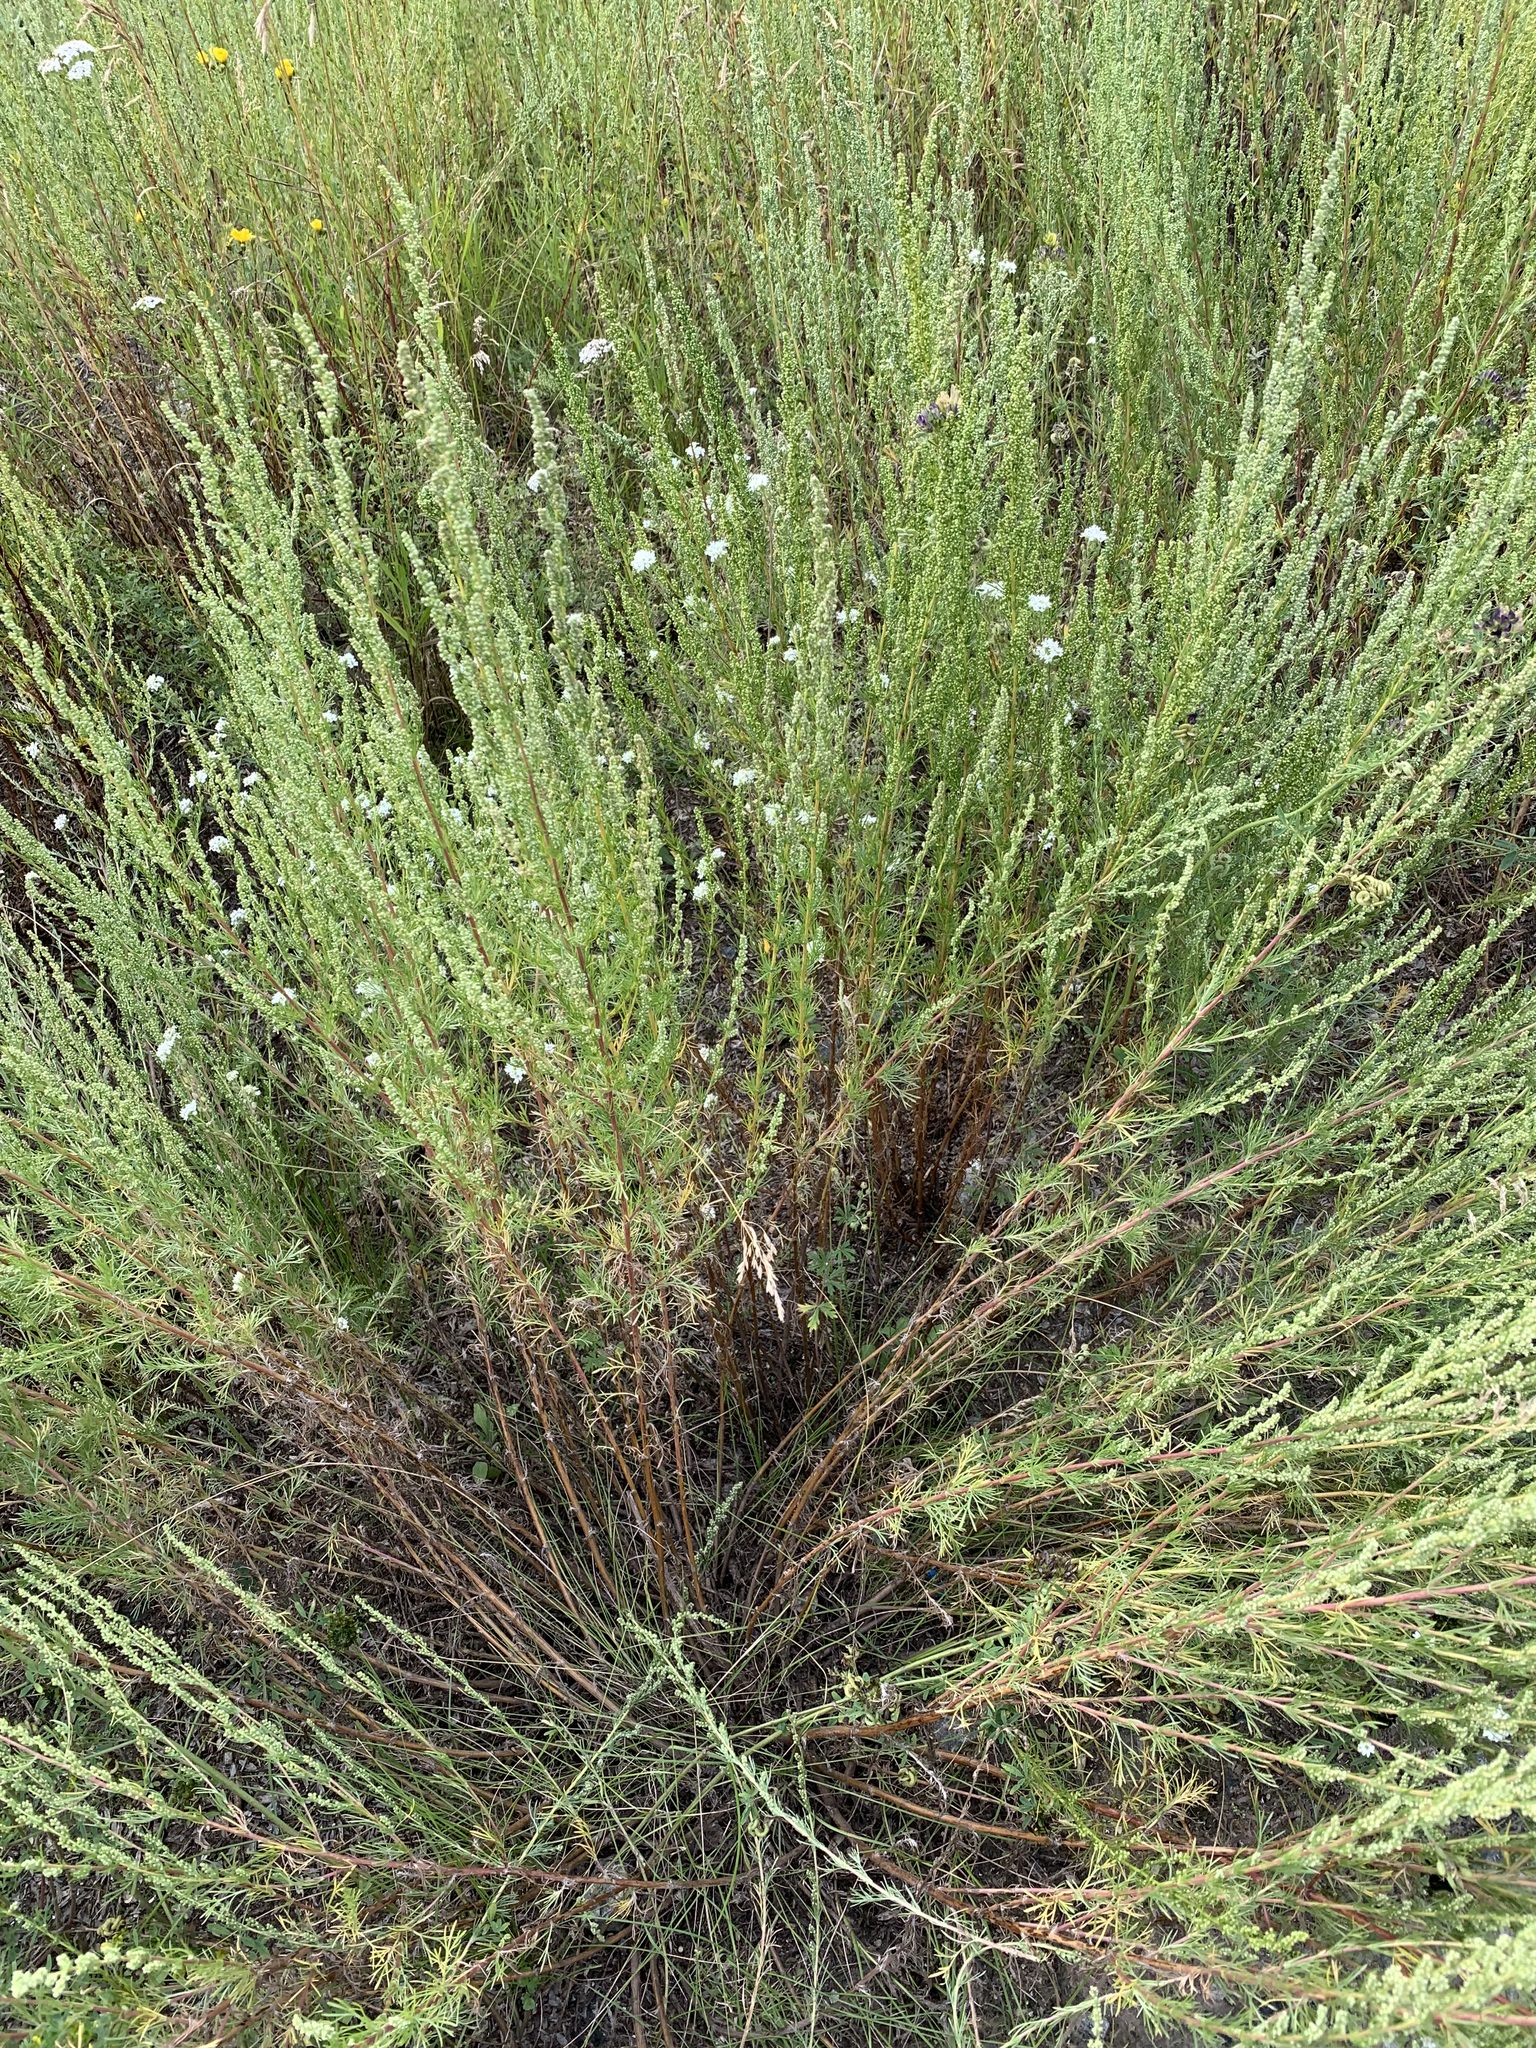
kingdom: Plantae
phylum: Tracheophyta
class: Magnoliopsida
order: Asterales
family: Asteraceae
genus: Artemisia
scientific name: Artemisia campestris
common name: Field wormwood
